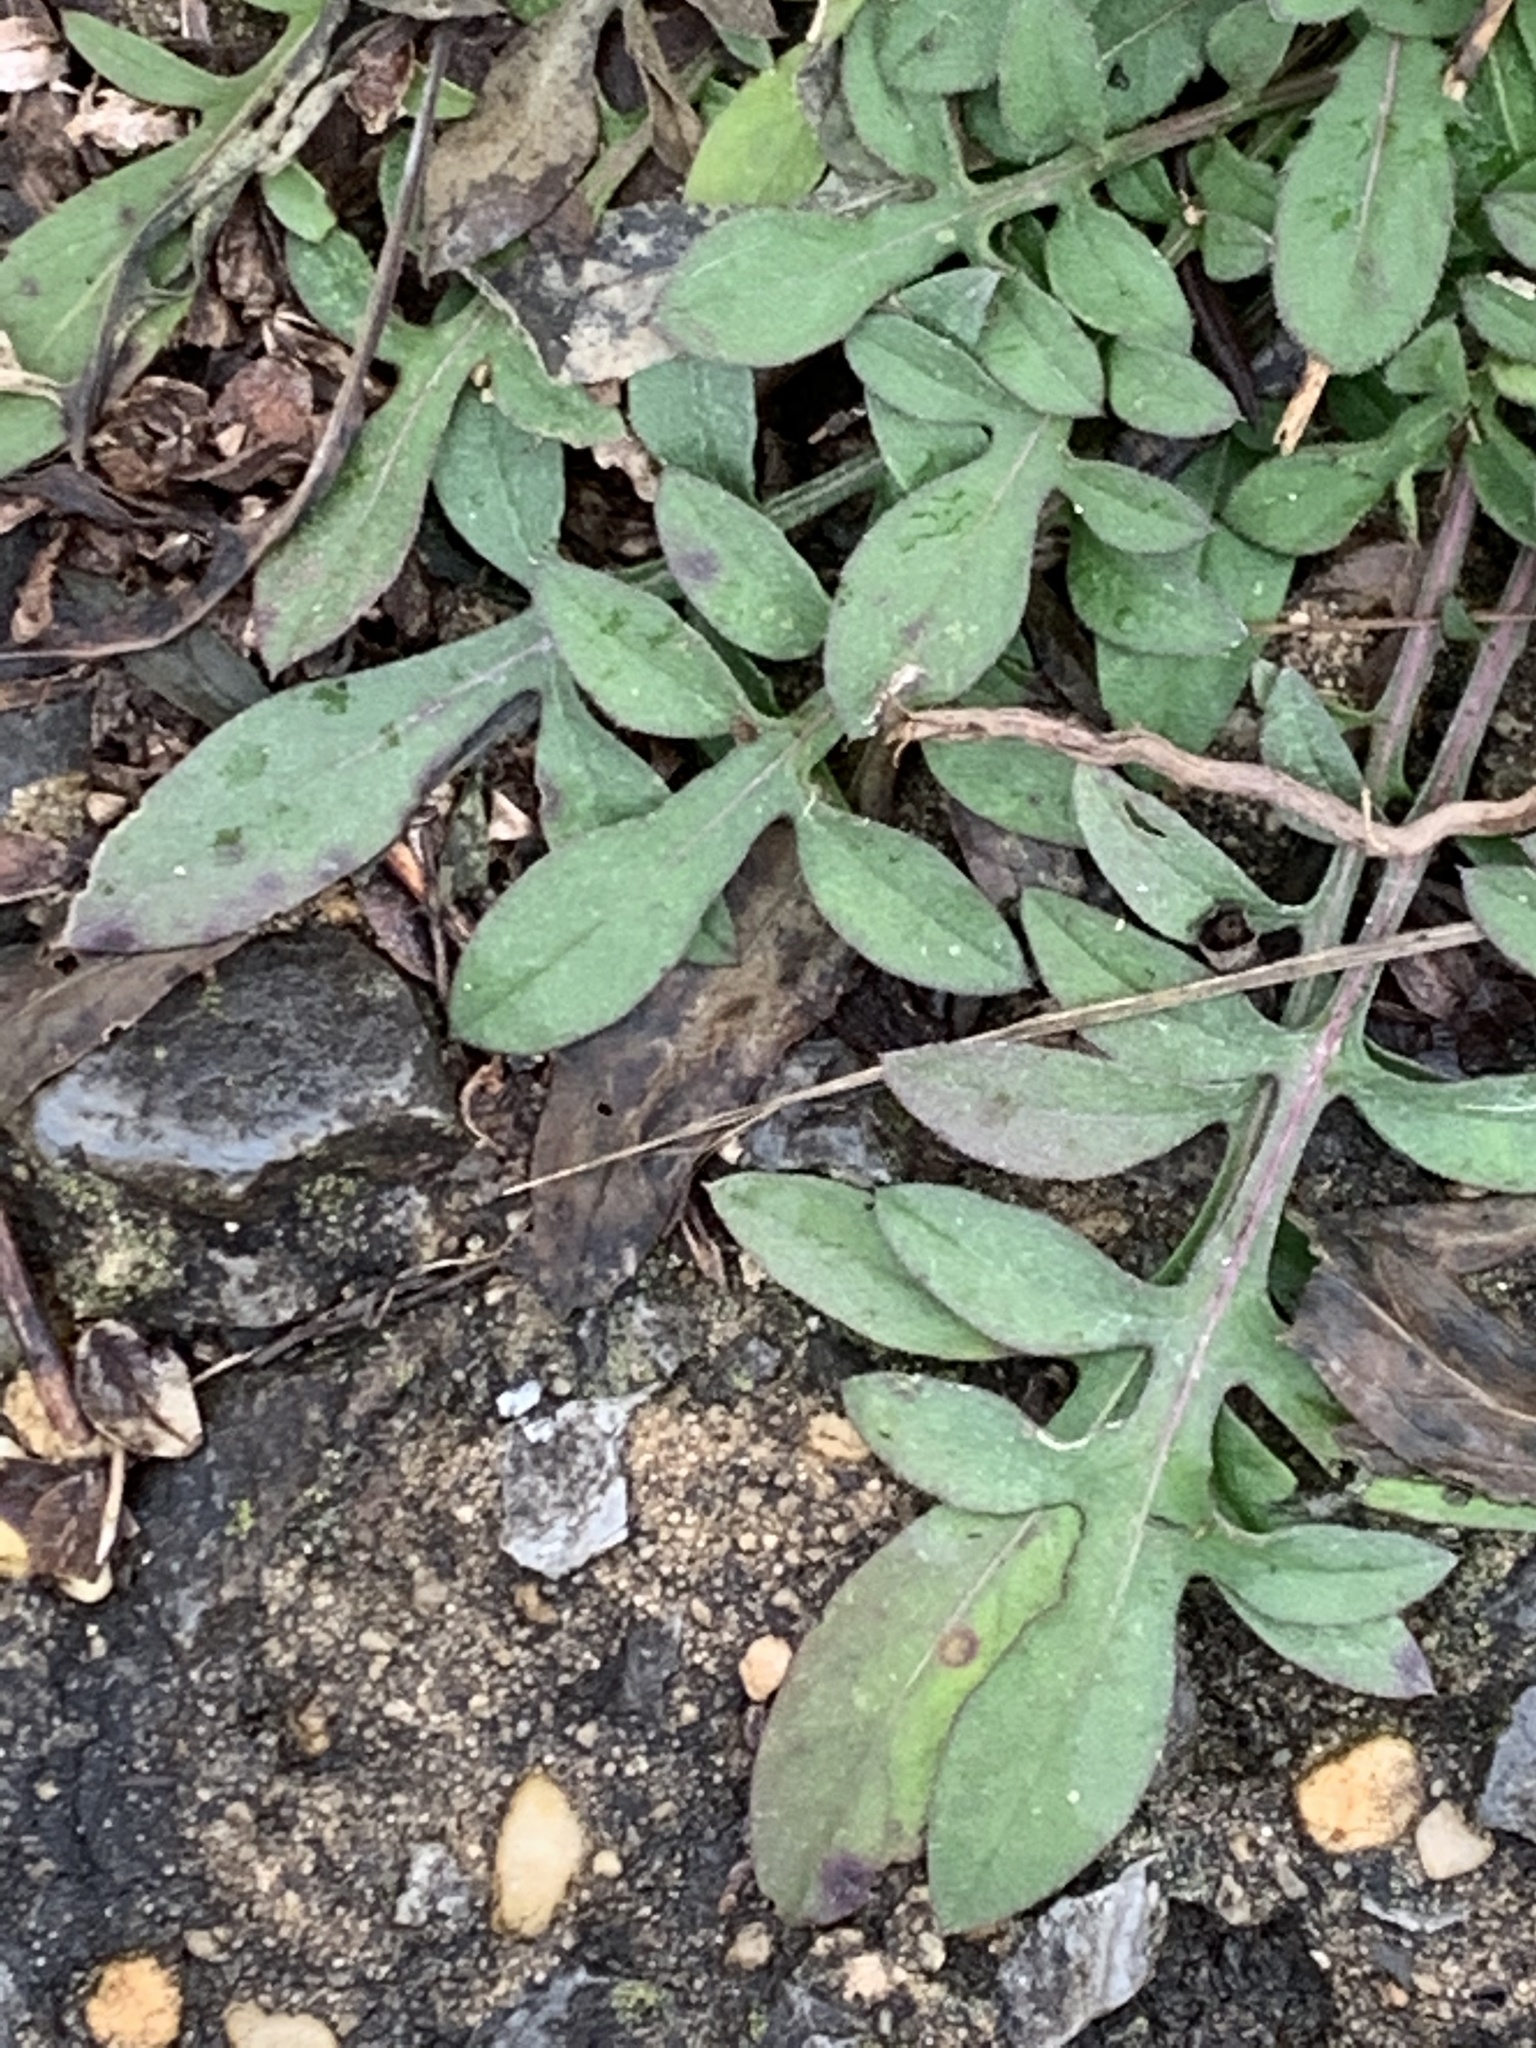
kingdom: Plantae
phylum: Tracheophyta
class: Magnoliopsida
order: Asterales
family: Asteraceae
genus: Centaurea
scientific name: Centaurea stoebe
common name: Spotted knapweed
